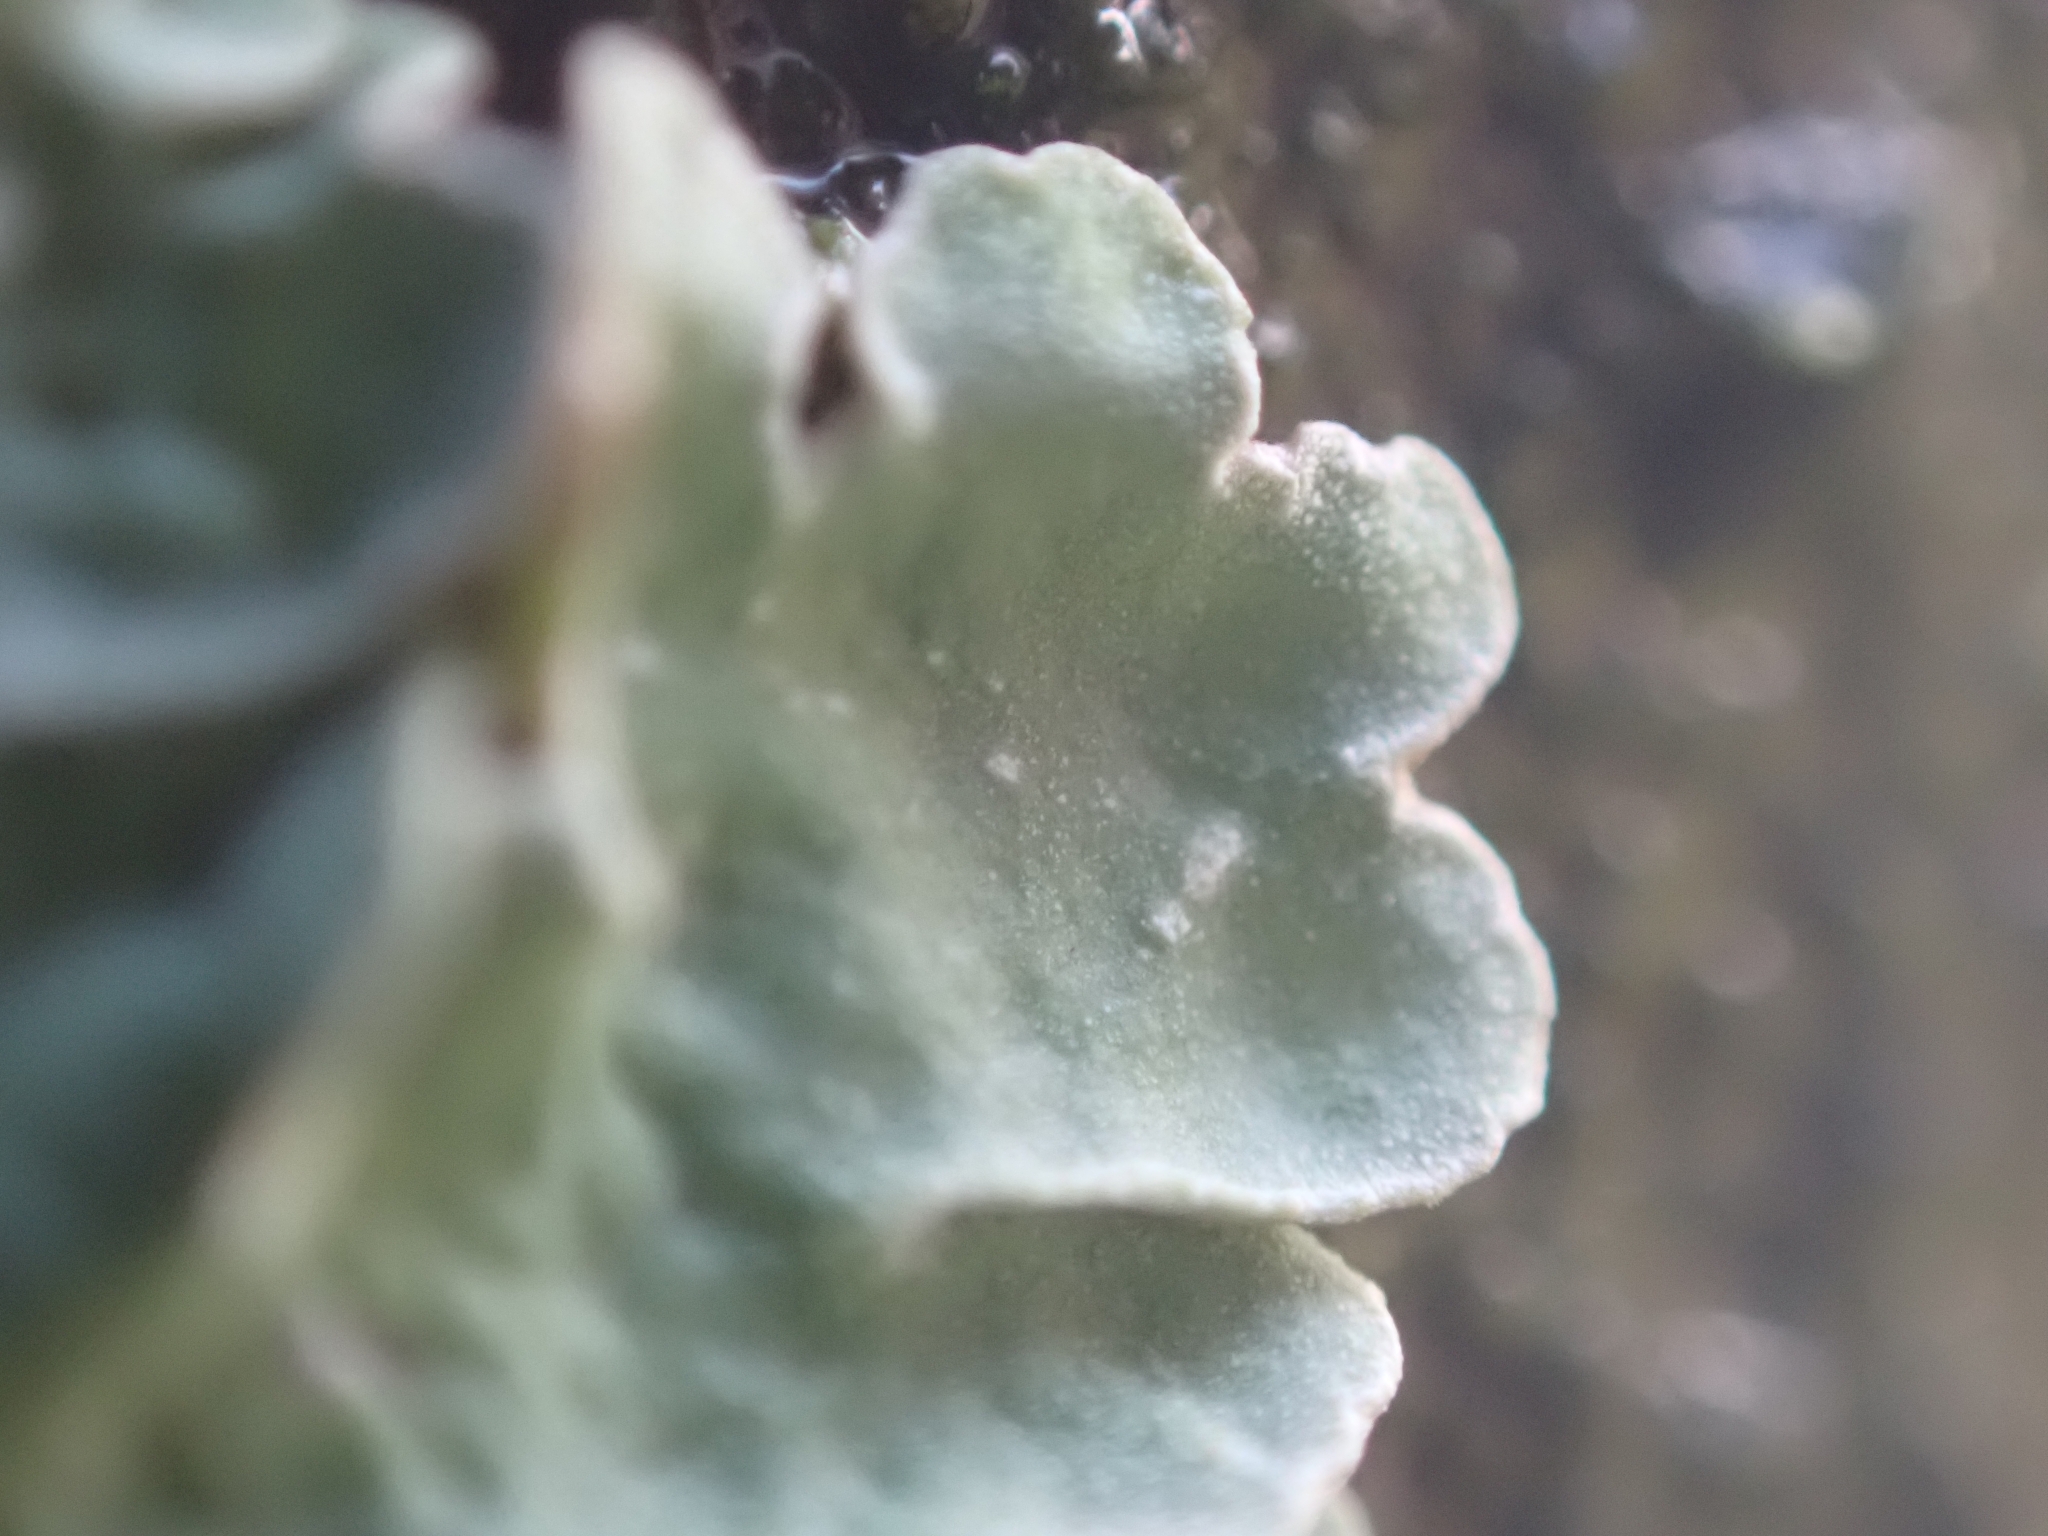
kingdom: Fungi
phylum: Ascomycota
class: Lecanoromycetes
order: Lecanorales
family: Parmeliaceae
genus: Punctelia
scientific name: Punctelia jeckeri
